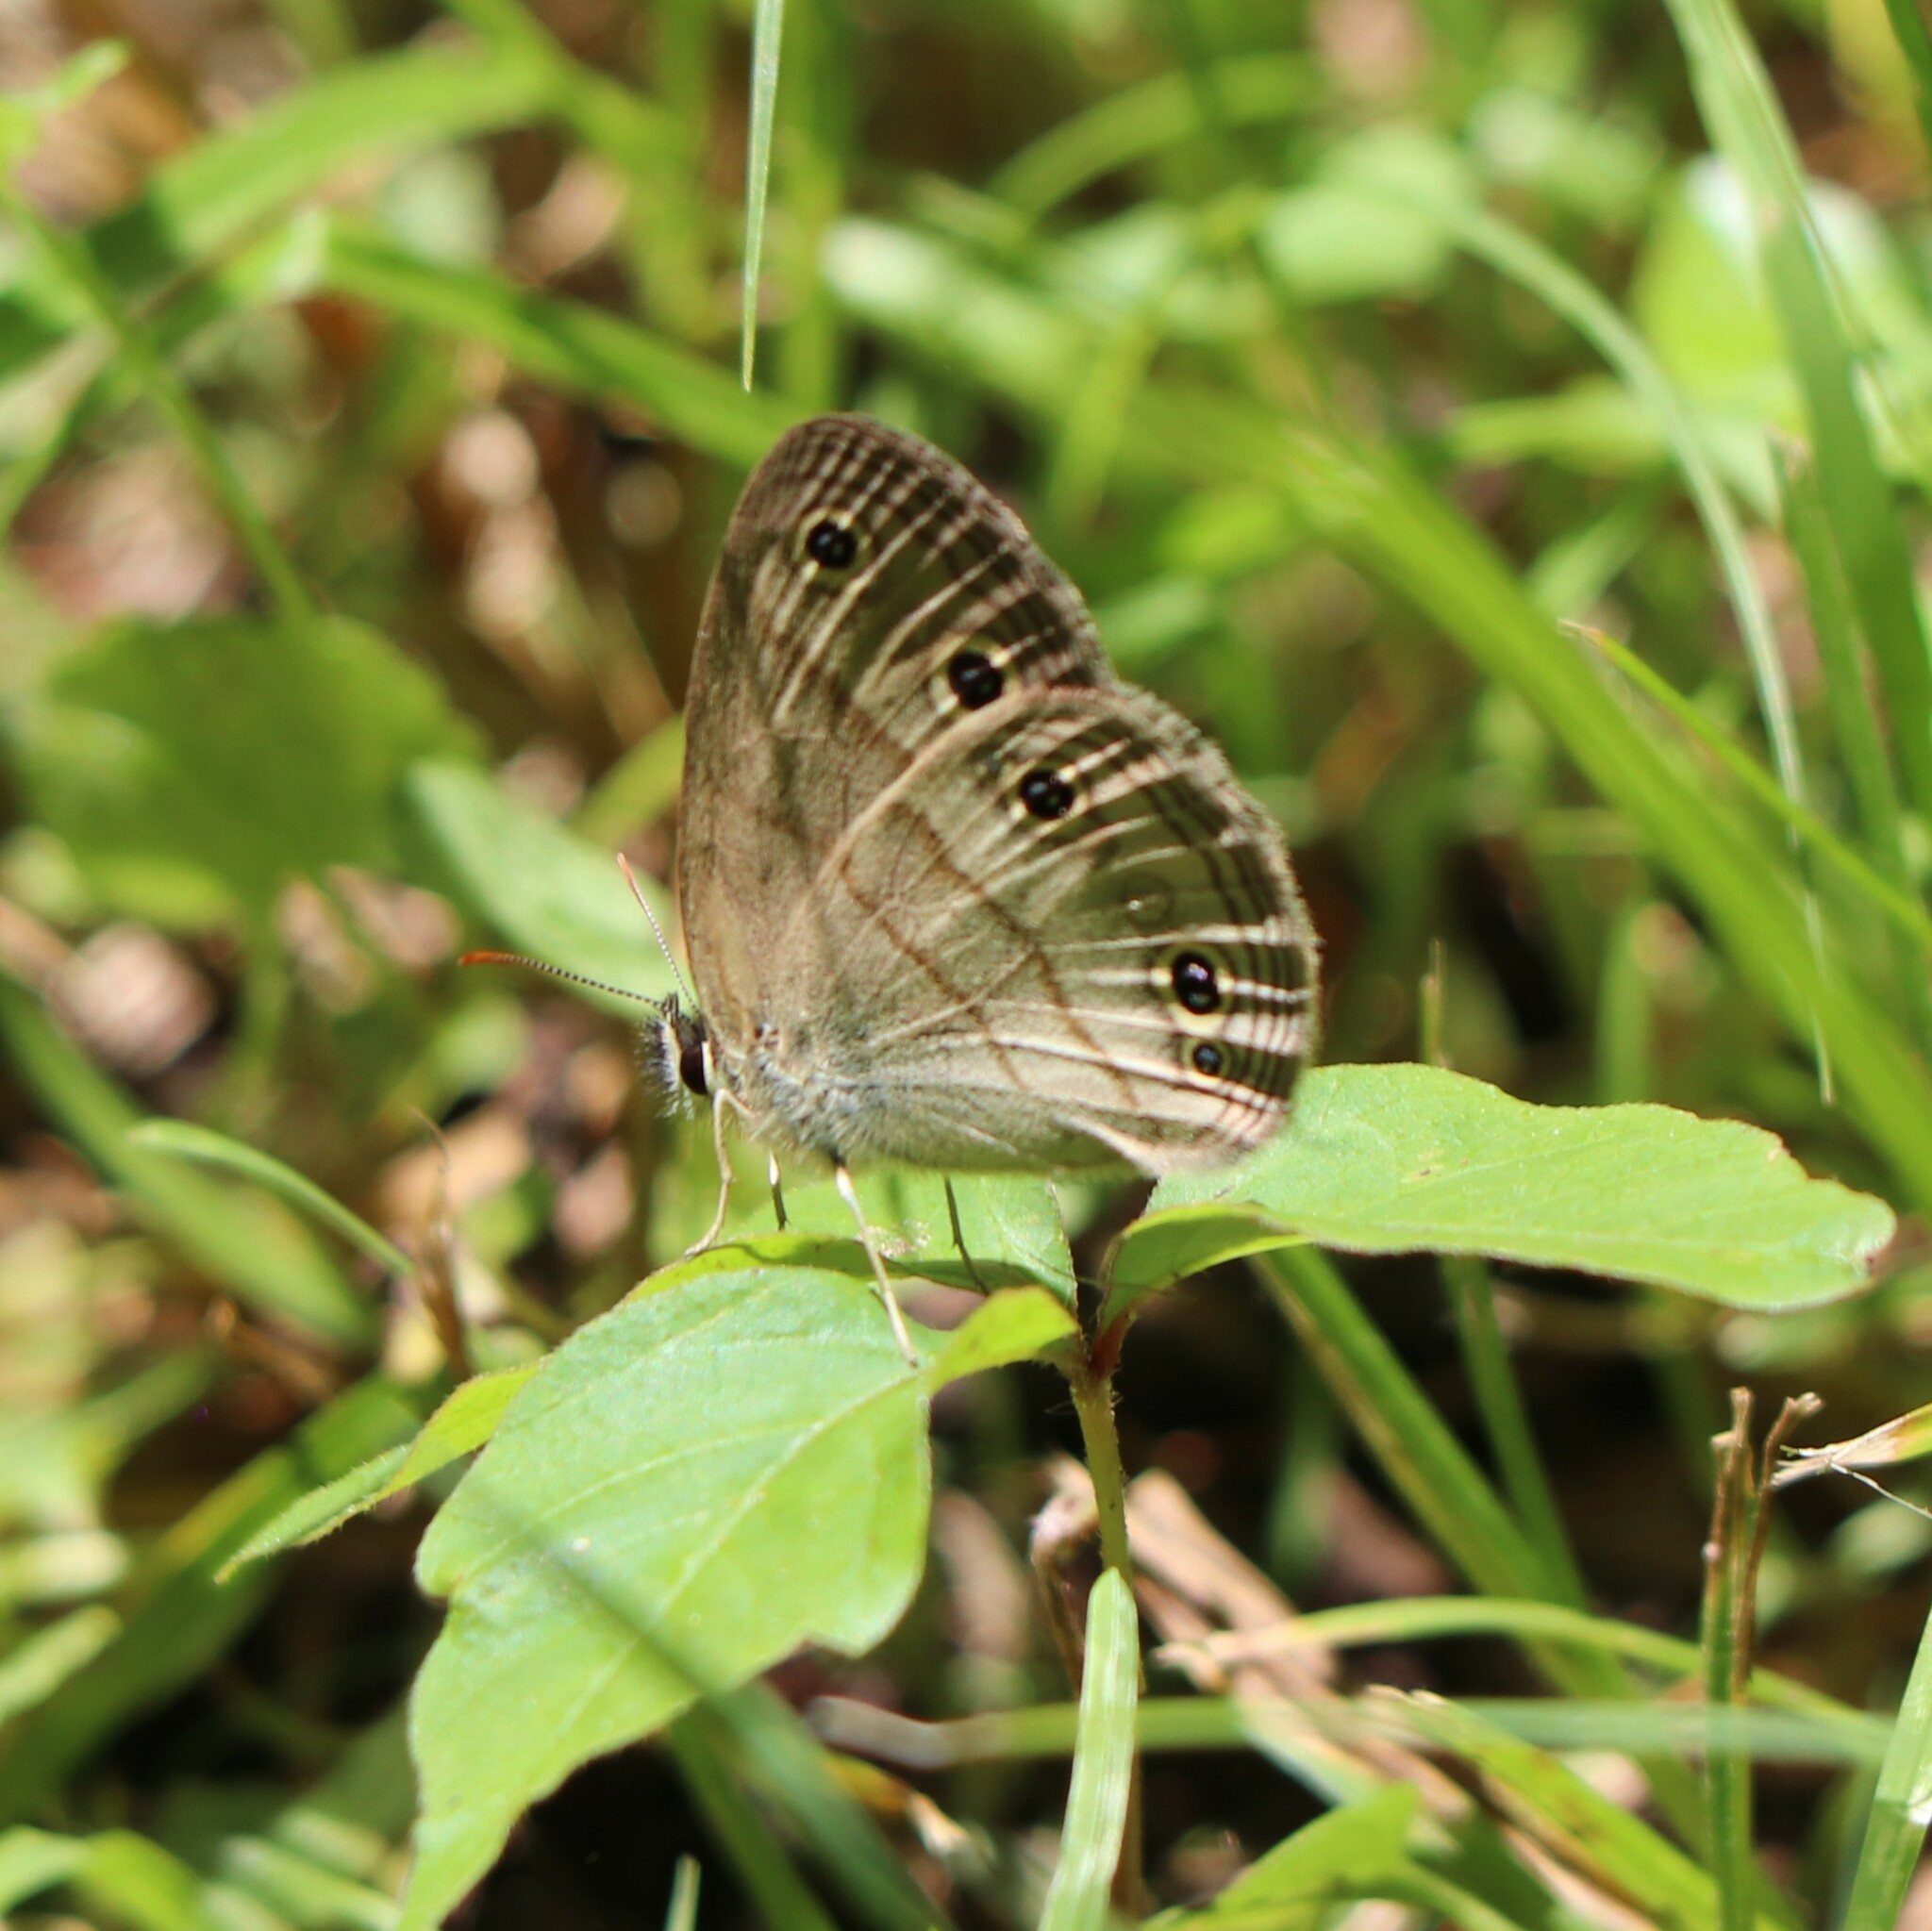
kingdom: Animalia
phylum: Arthropoda
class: Insecta
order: Lepidoptera
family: Nymphalidae
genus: Euptychia
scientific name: Euptychia cymela
